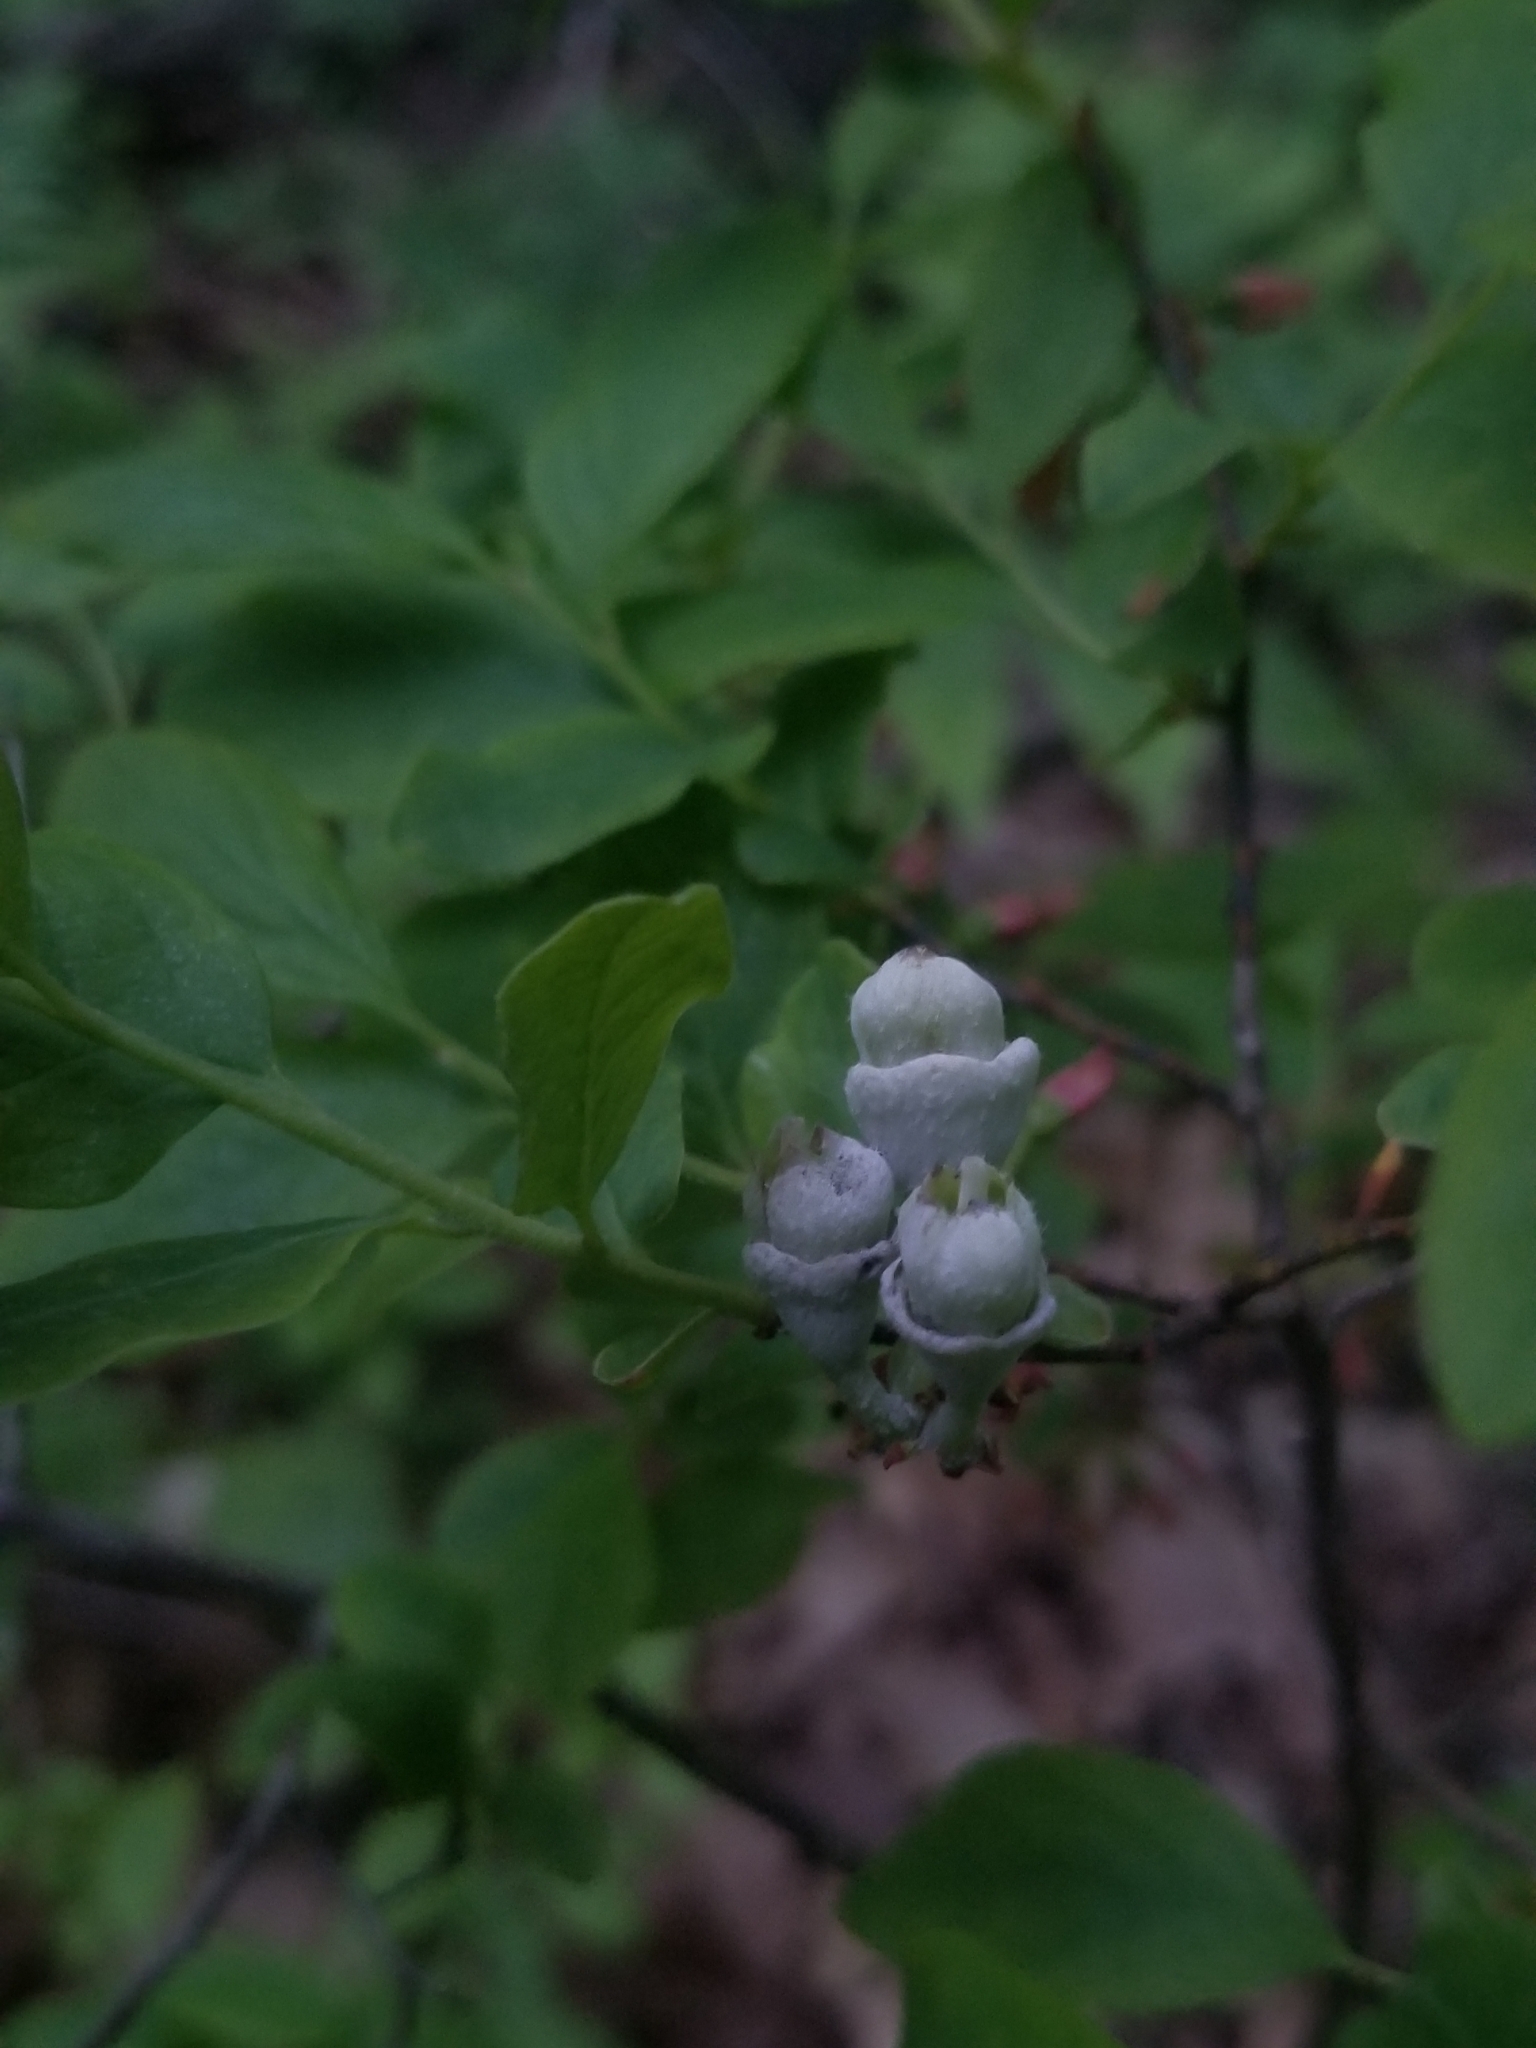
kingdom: Plantae
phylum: Tracheophyta
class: Magnoliopsida
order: Ericales
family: Ericaceae
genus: Gaylussacia
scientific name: Gaylussacia baccata
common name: Black huckleberry
